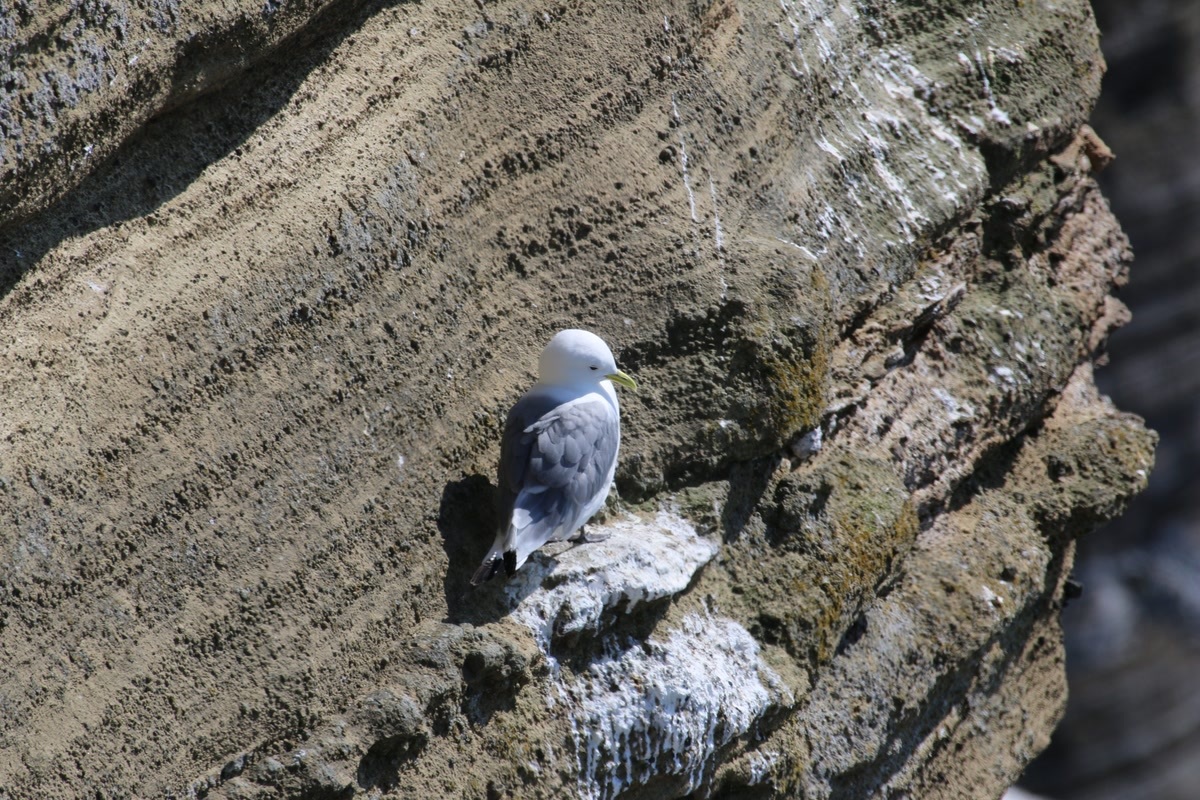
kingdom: Animalia
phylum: Chordata
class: Aves
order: Charadriiformes
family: Laridae
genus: Rissa
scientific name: Rissa tridactyla
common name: Black-legged kittiwake
